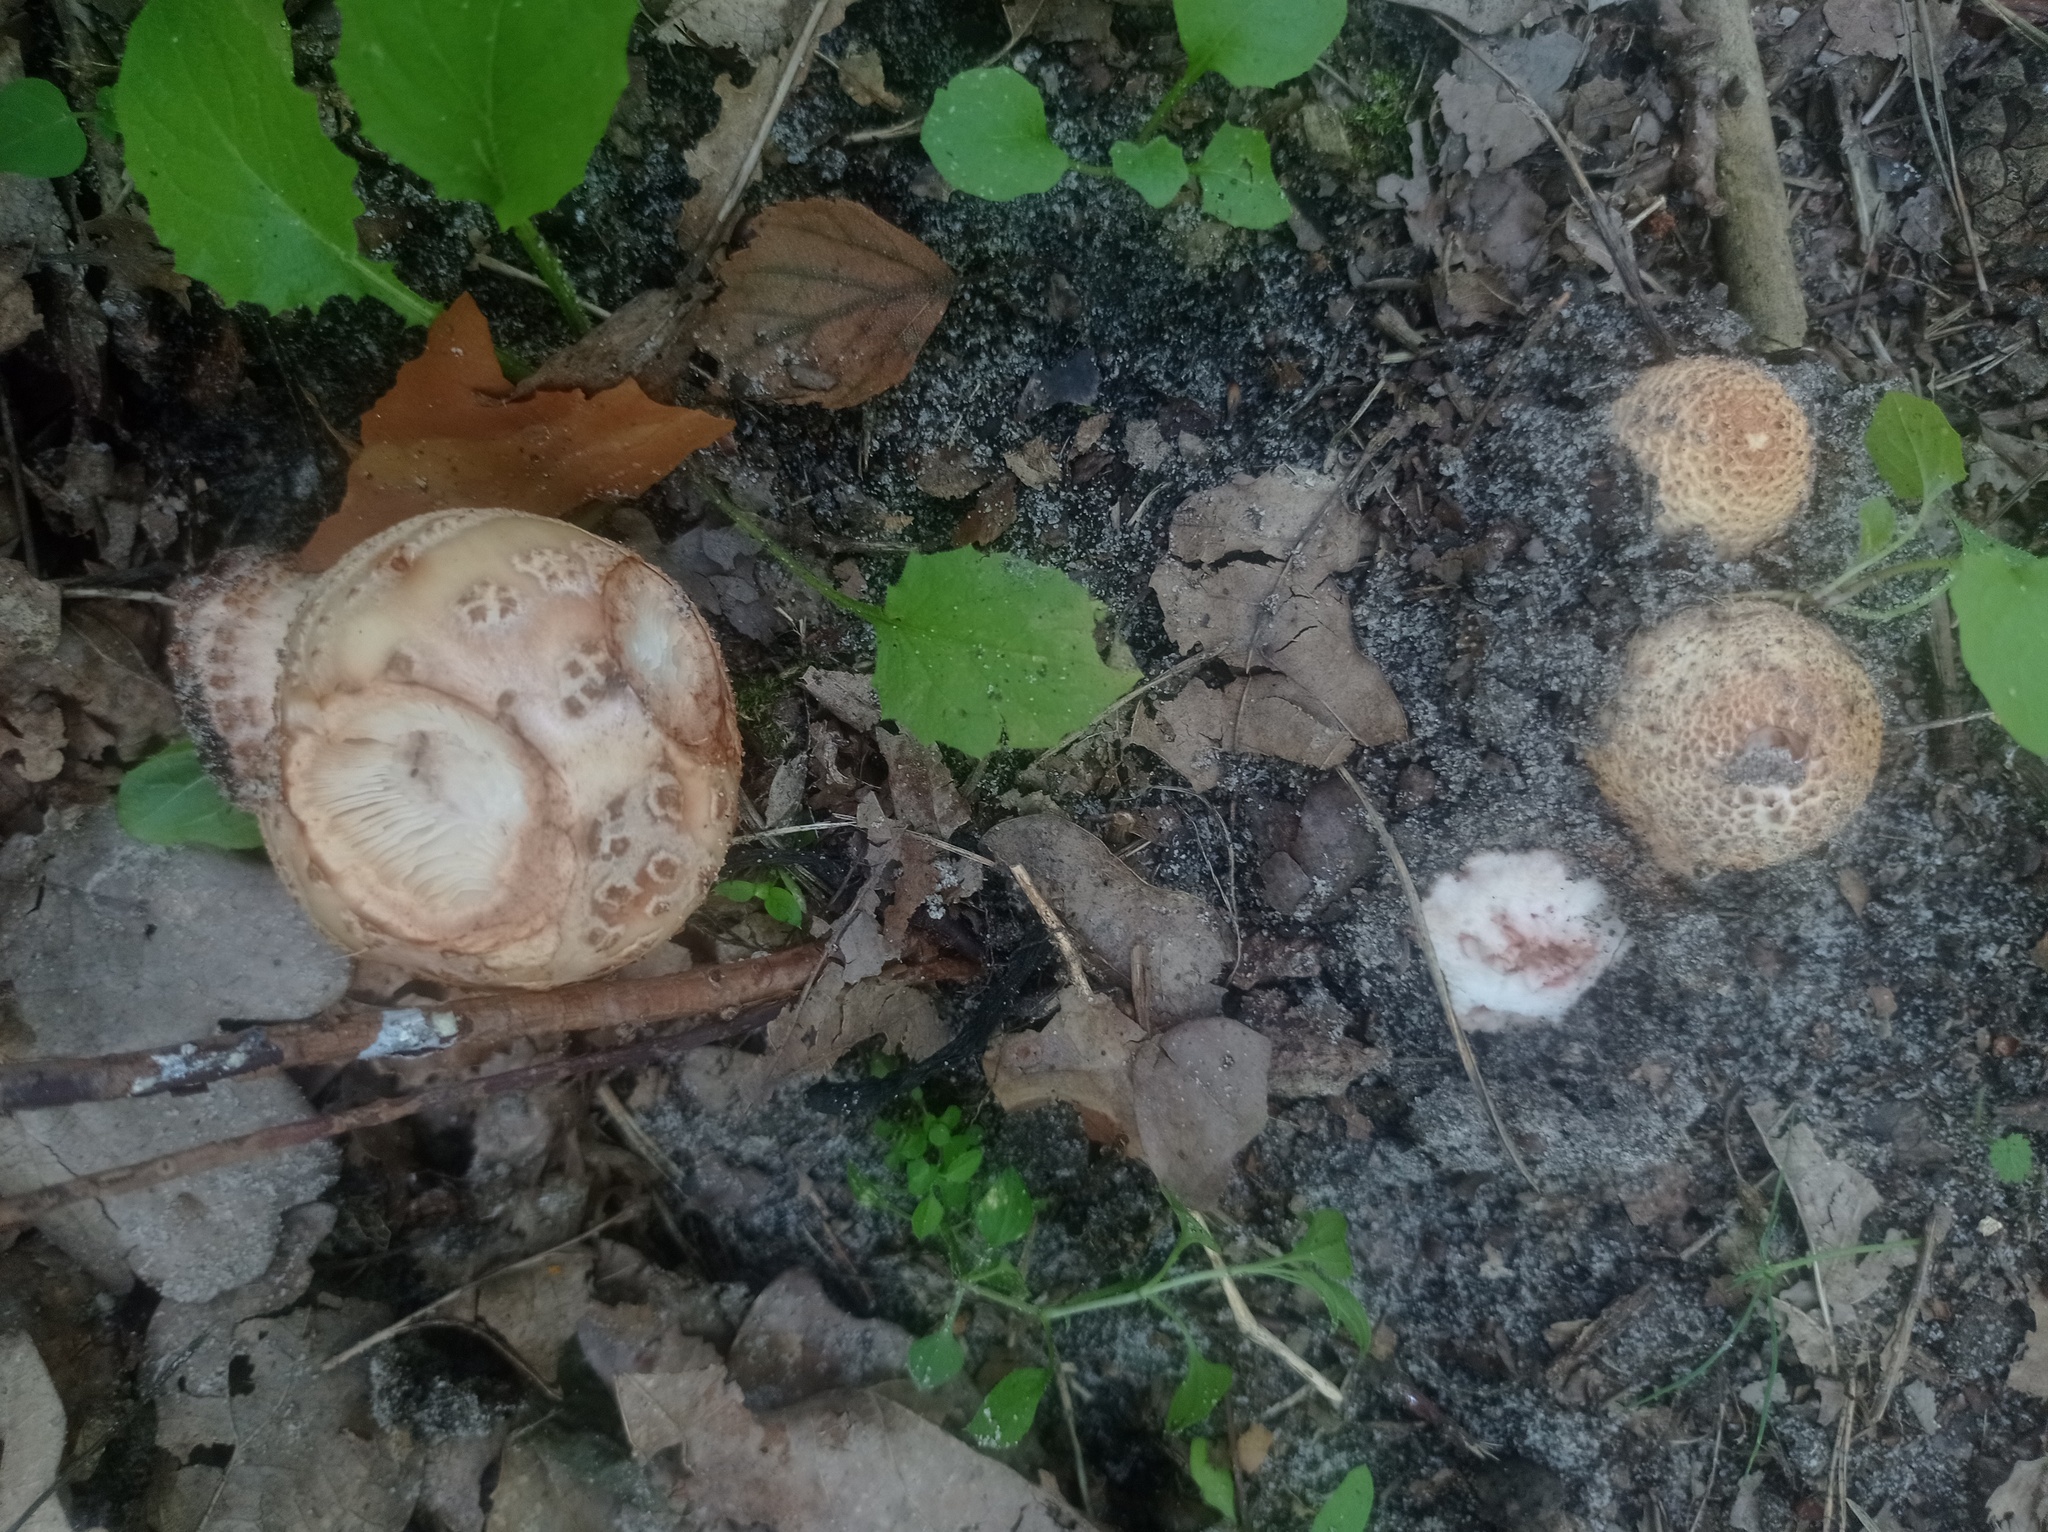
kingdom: Fungi
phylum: Basidiomycota
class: Agaricomycetes
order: Agaricales
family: Amanitaceae
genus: Amanita
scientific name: Amanita rubescens
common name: Blusher
